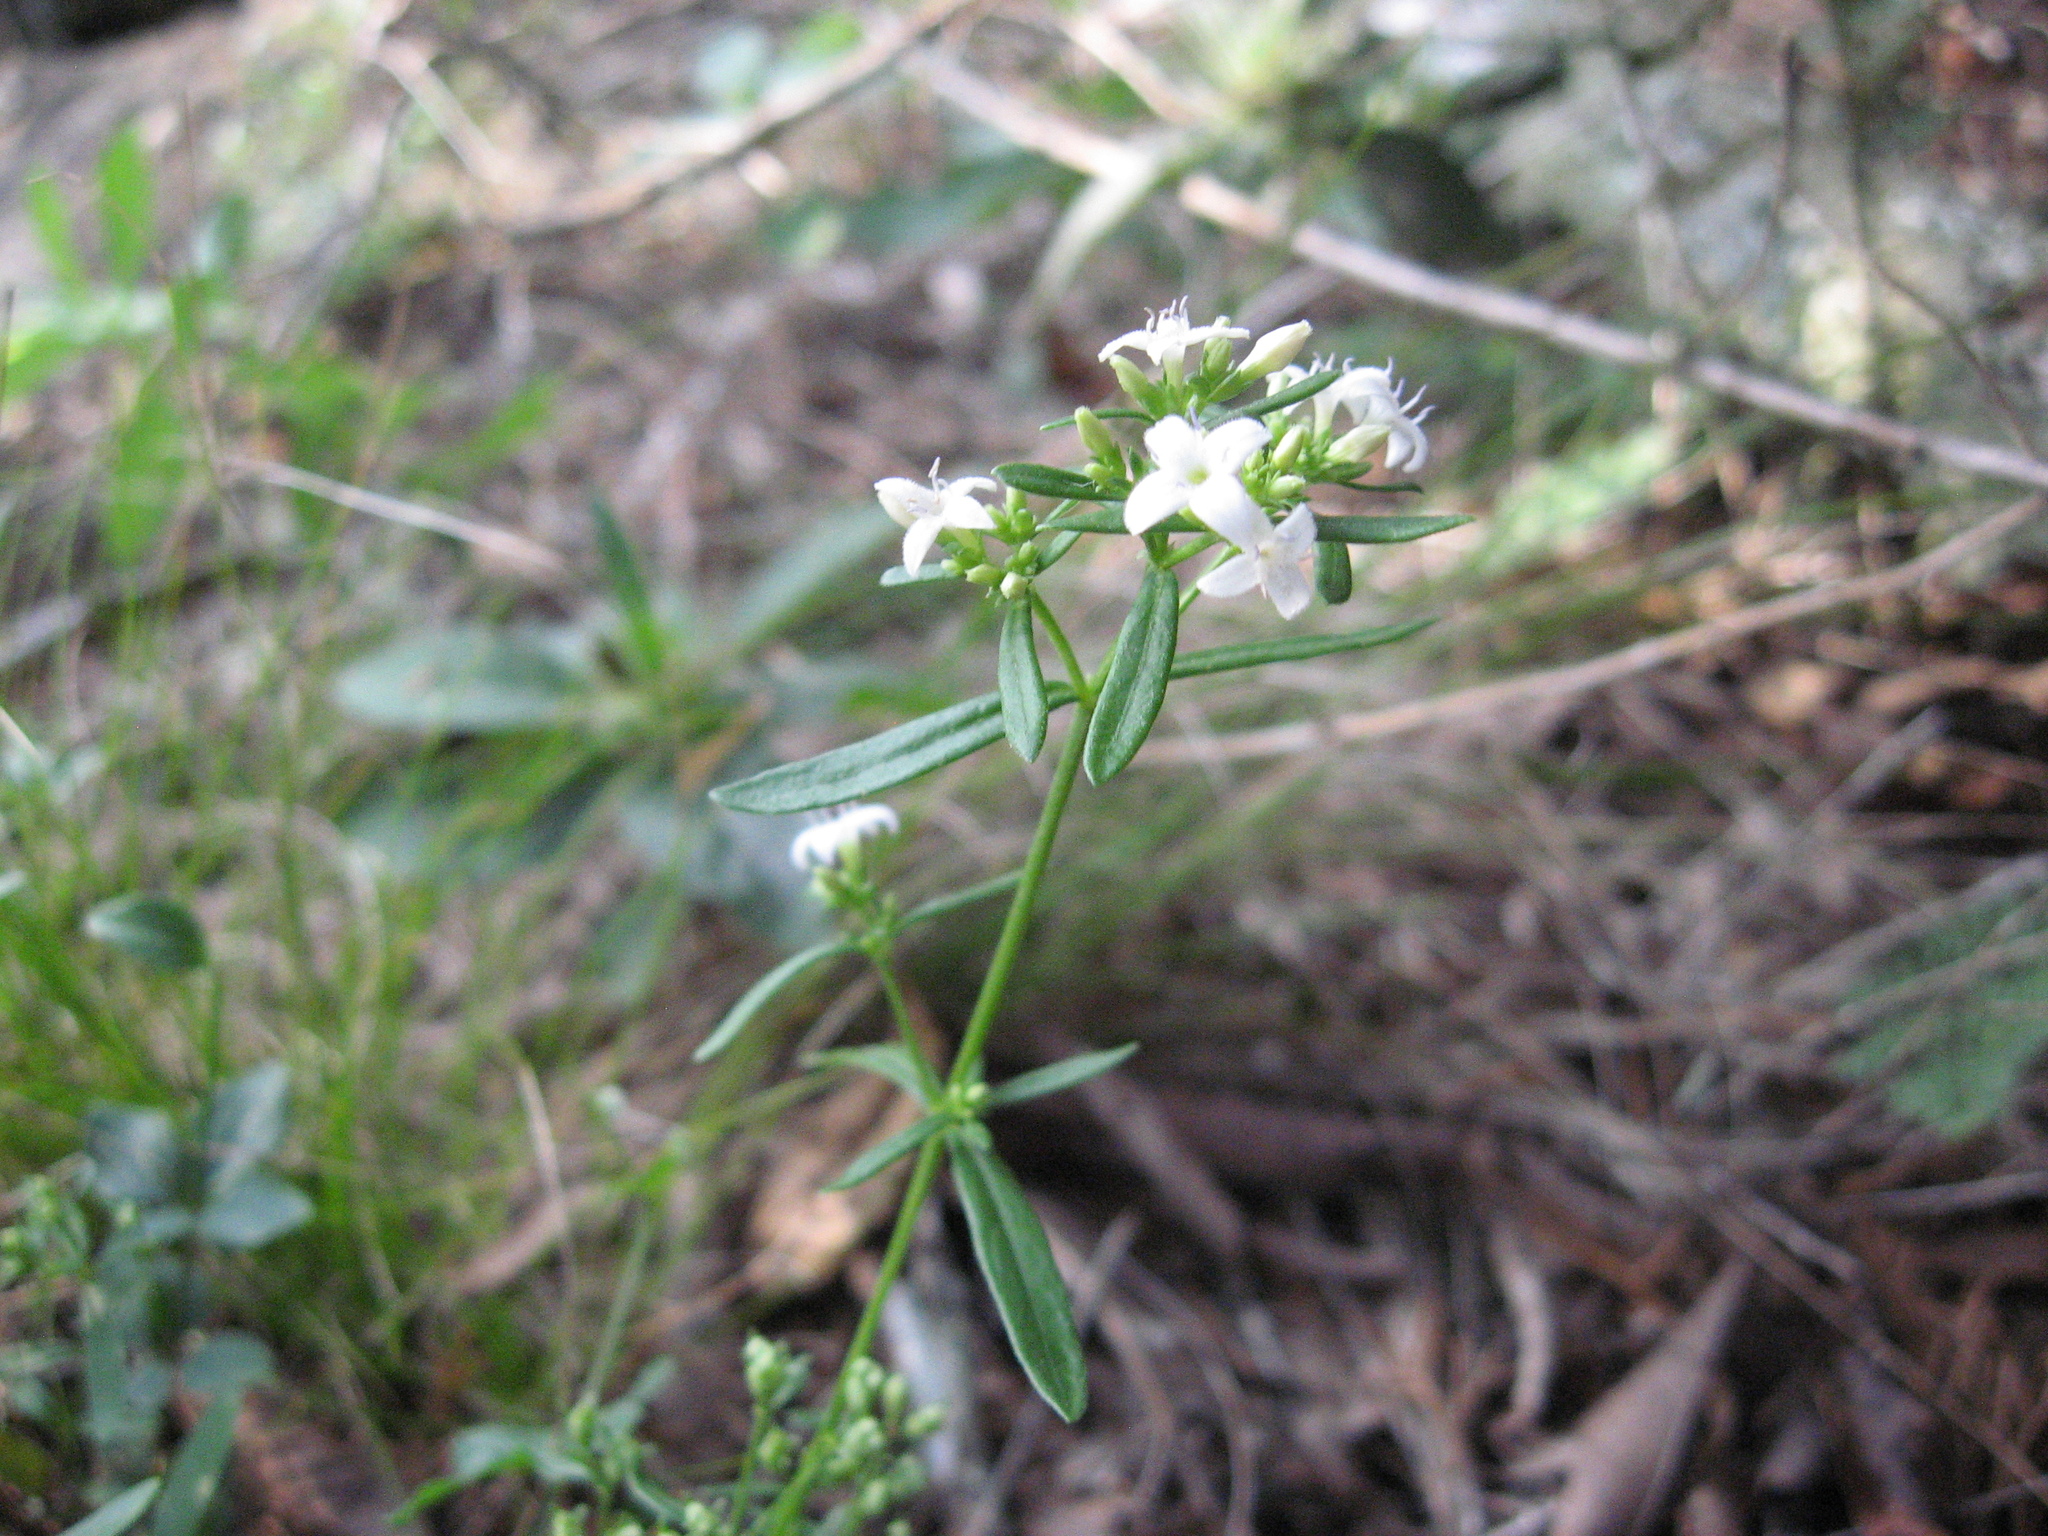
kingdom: Plantae
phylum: Tracheophyta
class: Magnoliopsida
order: Gentianales
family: Rubiaceae
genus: Houstonia
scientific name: Houstonia purpurea
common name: Summer bluet
